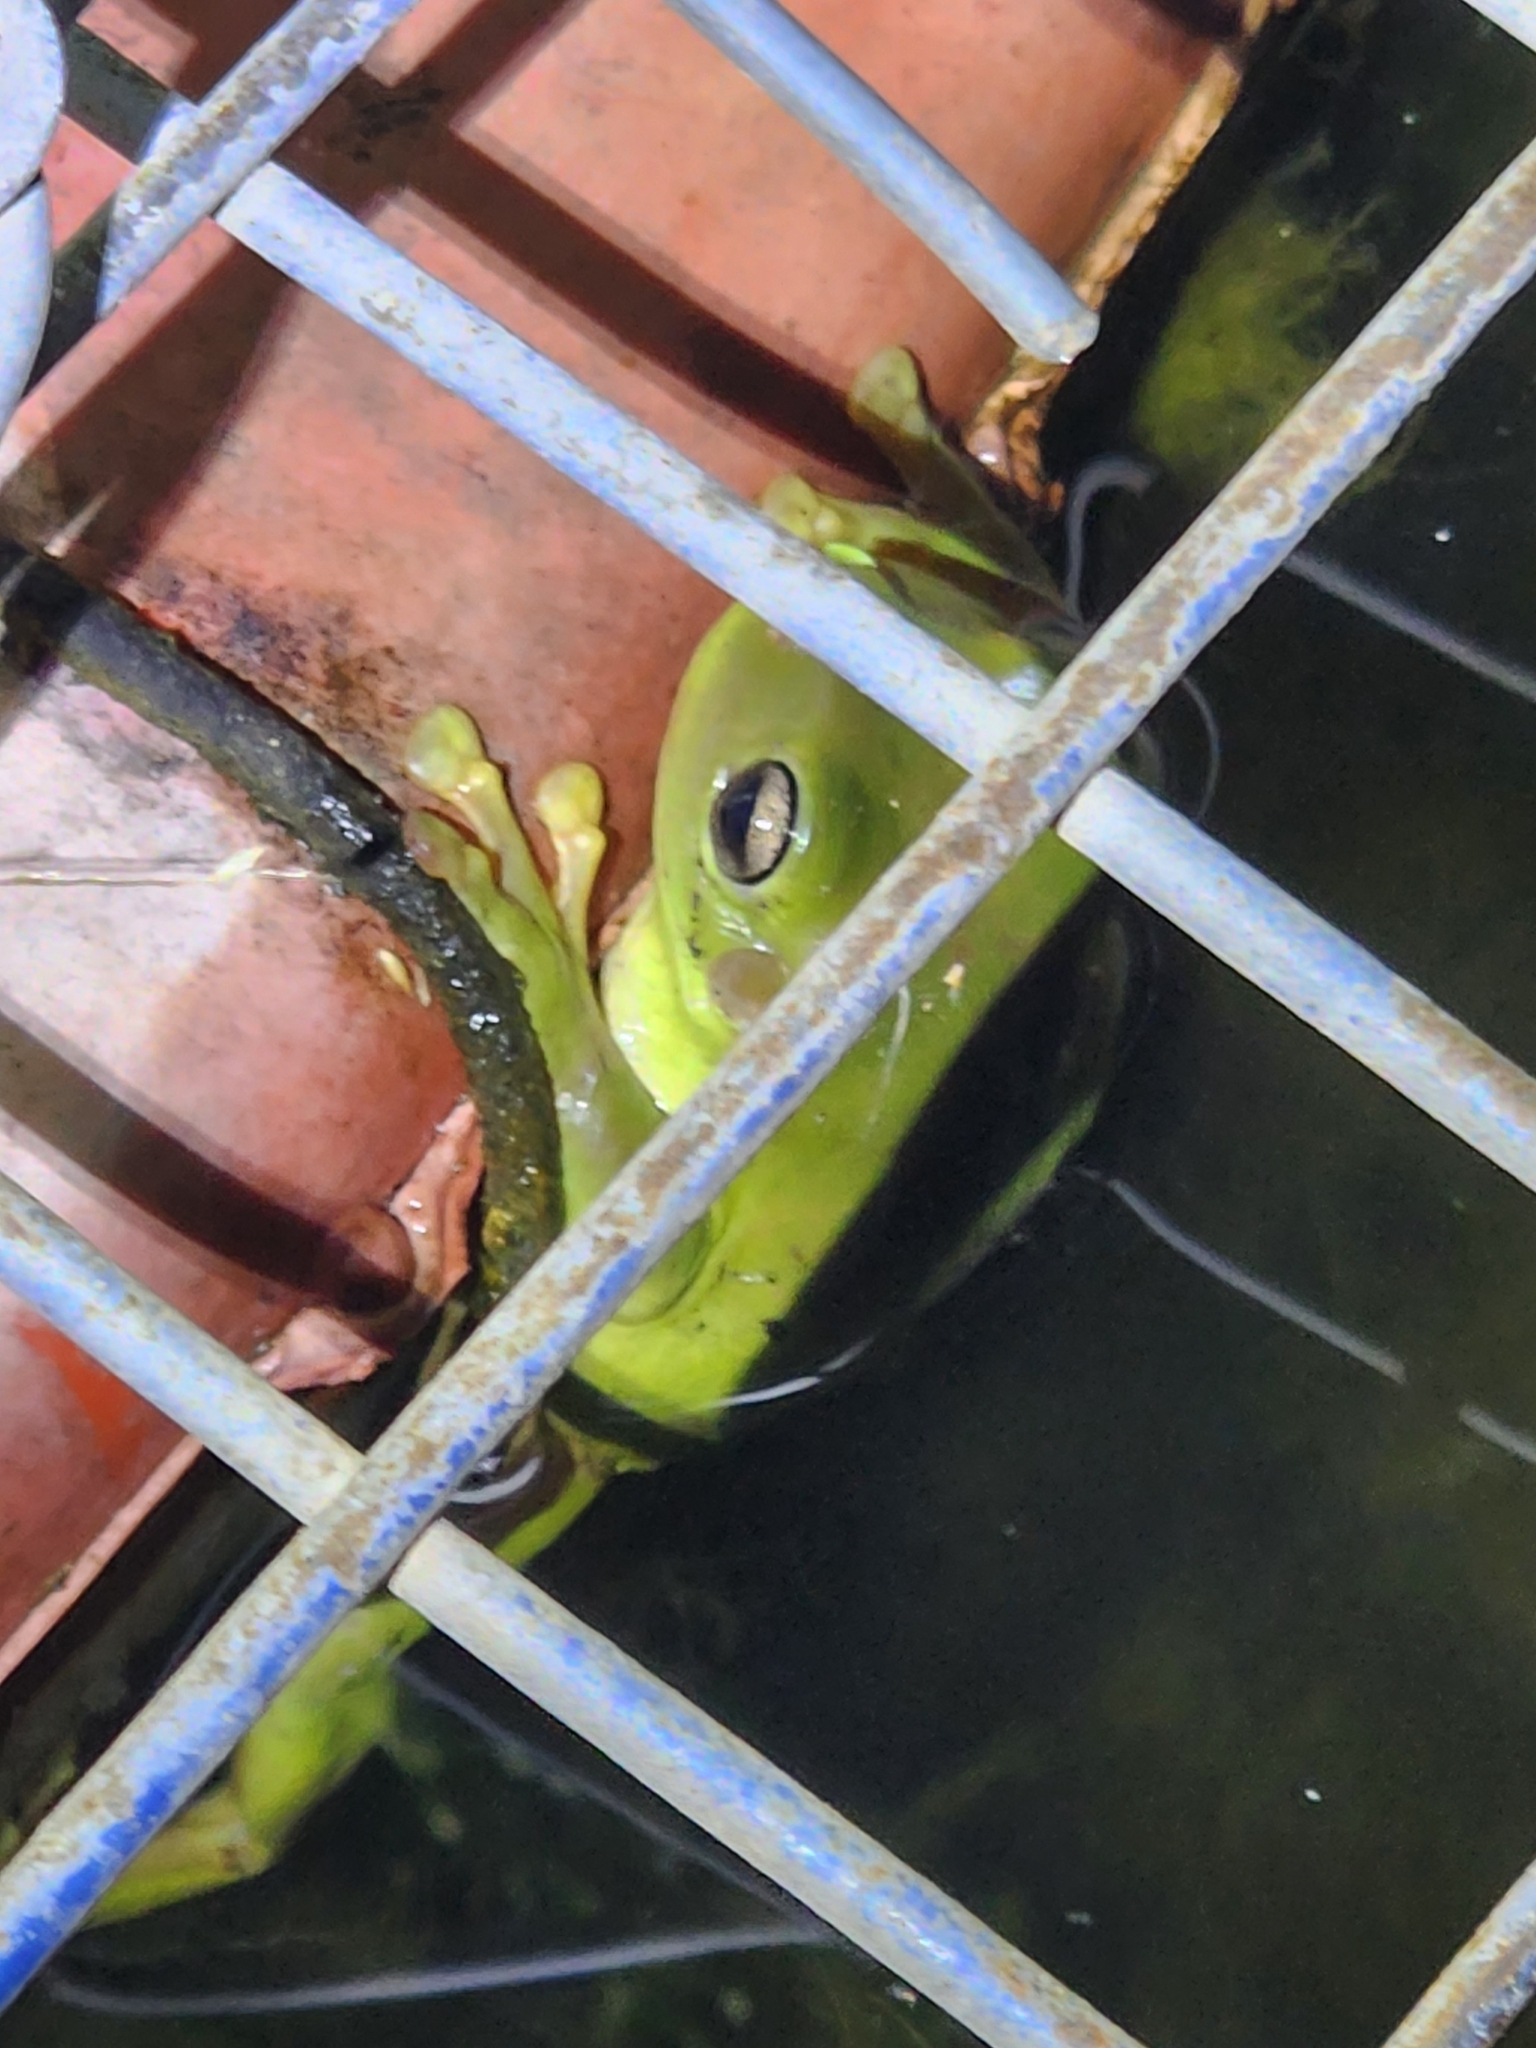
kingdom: Animalia
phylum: Chordata
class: Amphibia
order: Anura
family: Pelodryadidae
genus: Ranoidea
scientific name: Ranoidea caerulea
